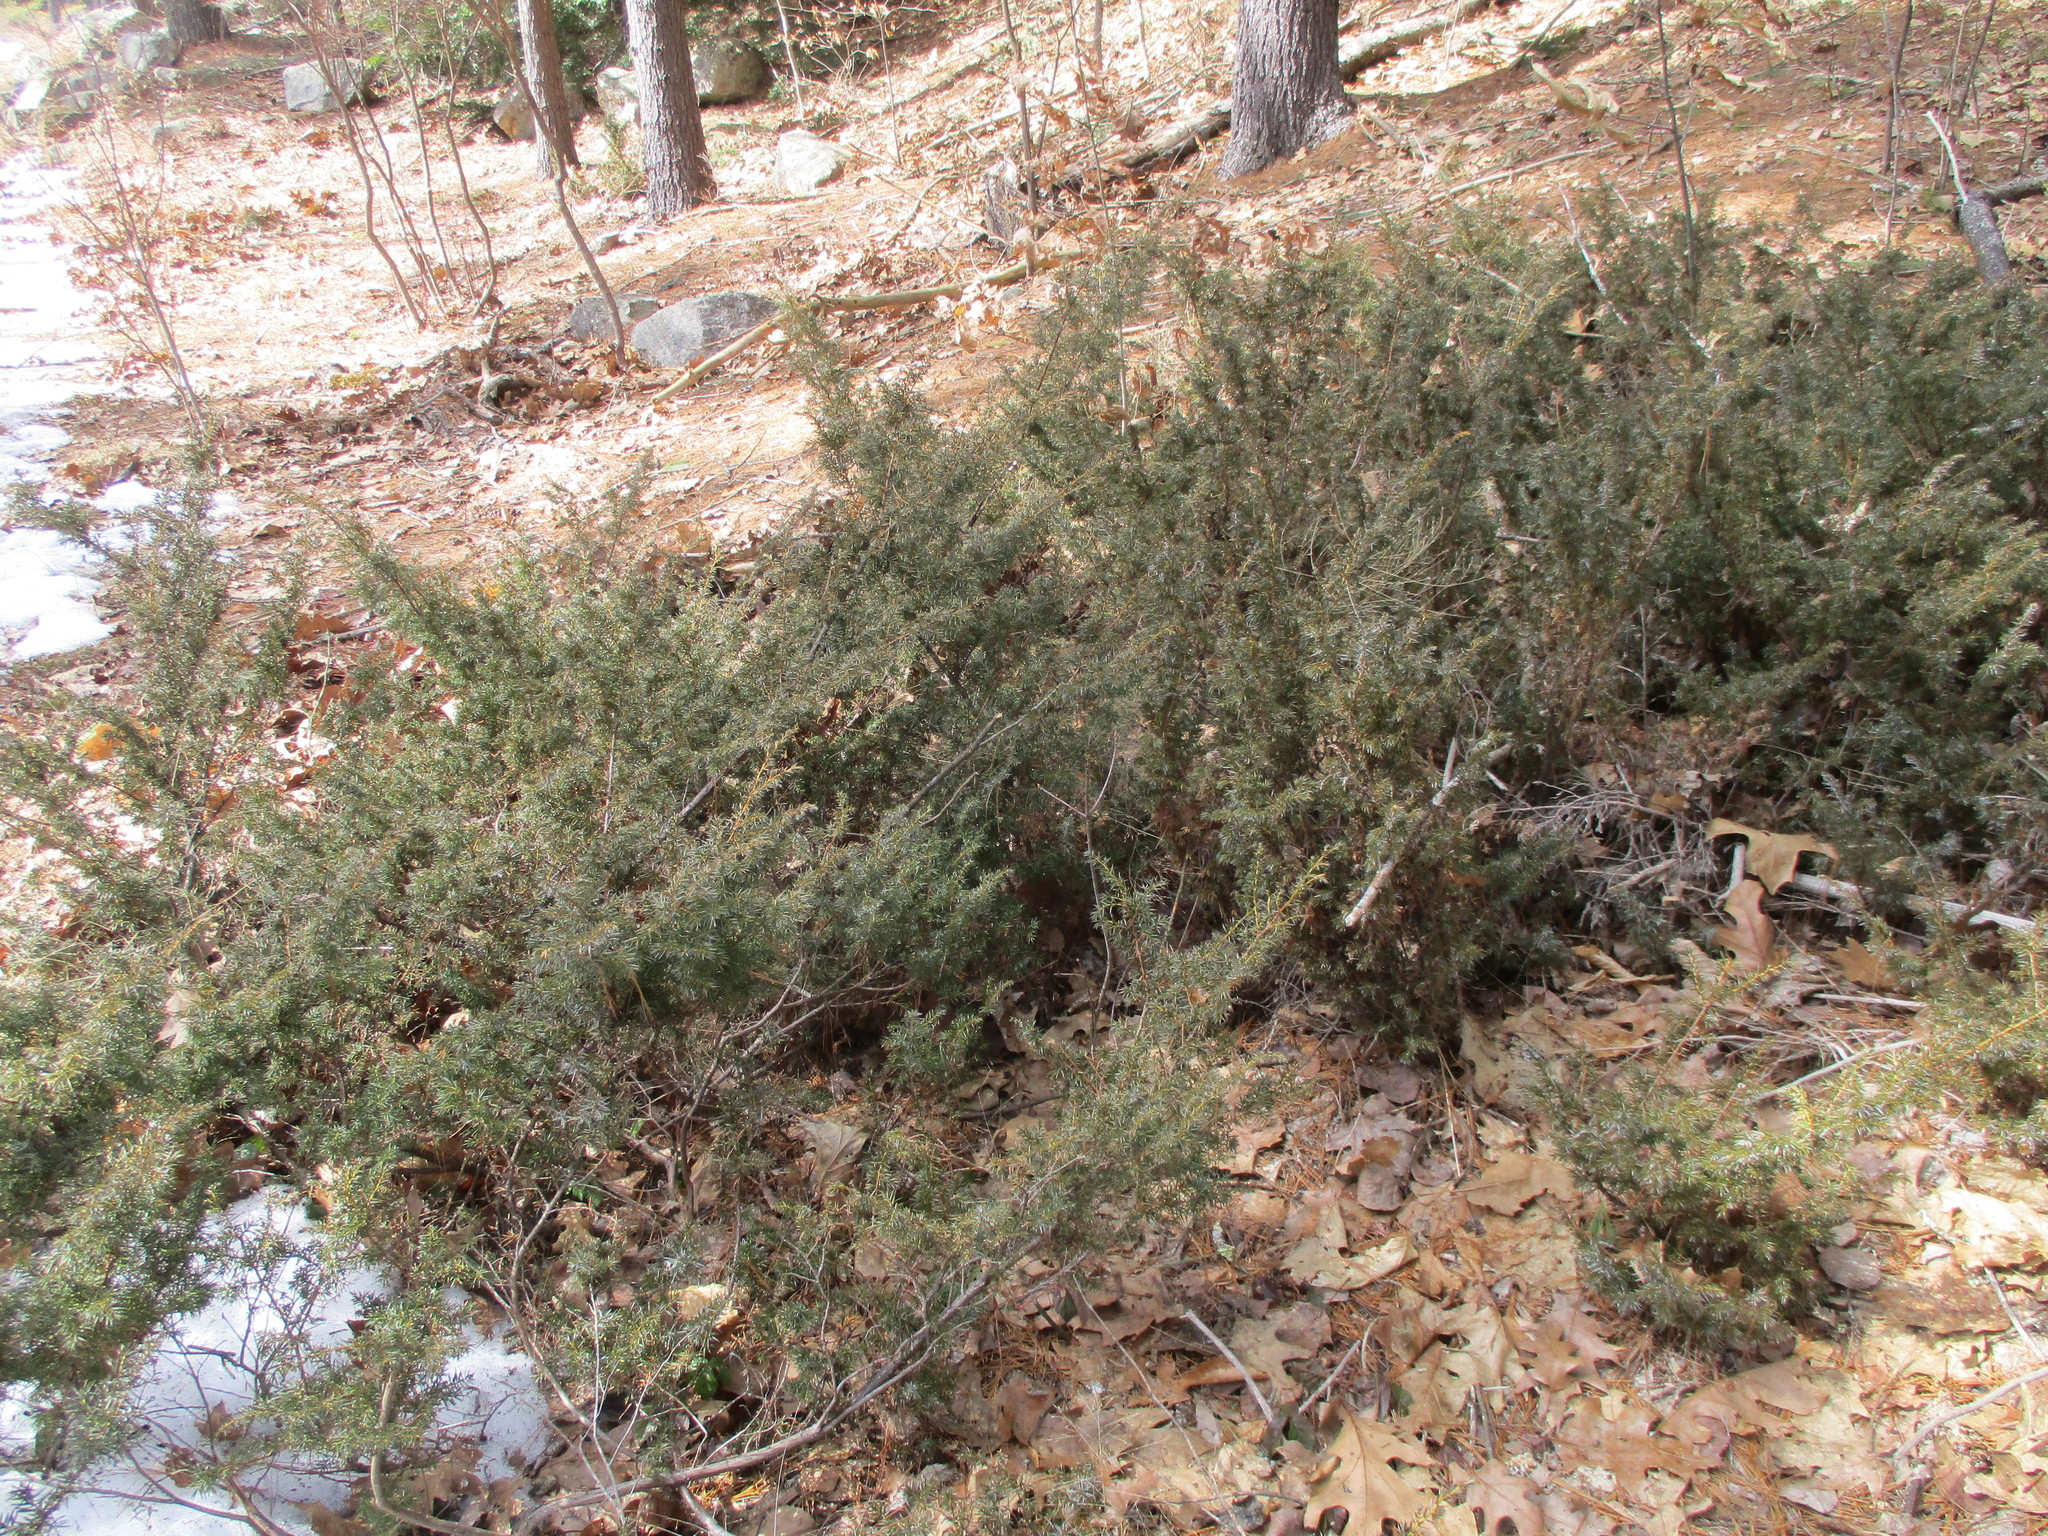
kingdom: Plantae
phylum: Tracheophyta
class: Pinopsida
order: Pinales
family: Cupressaceae
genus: Juniperus
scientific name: Juniperus communis
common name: Common juniper
